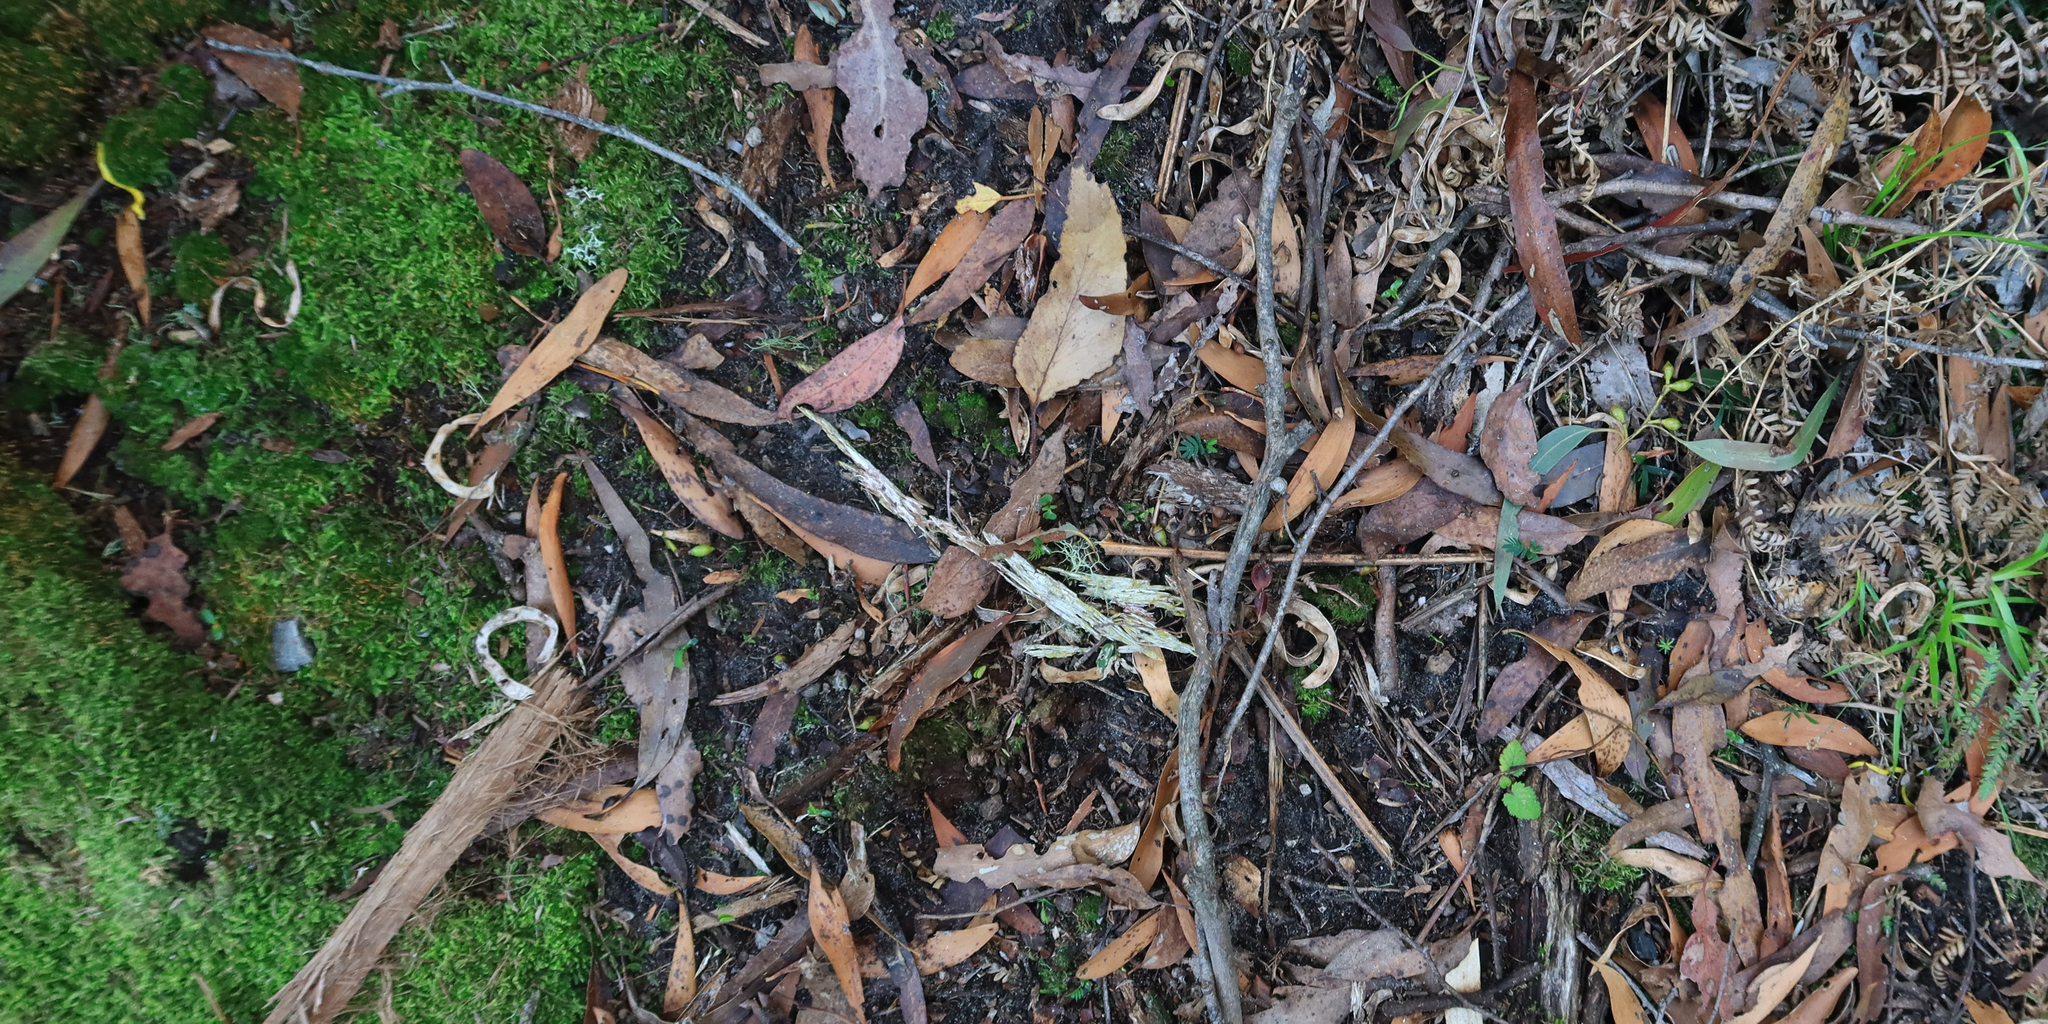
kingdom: Animalia
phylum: Platyhelminthes
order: Tricladida
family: Geoplanidae
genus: Fletchamia
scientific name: Fletchamia sugdeni
